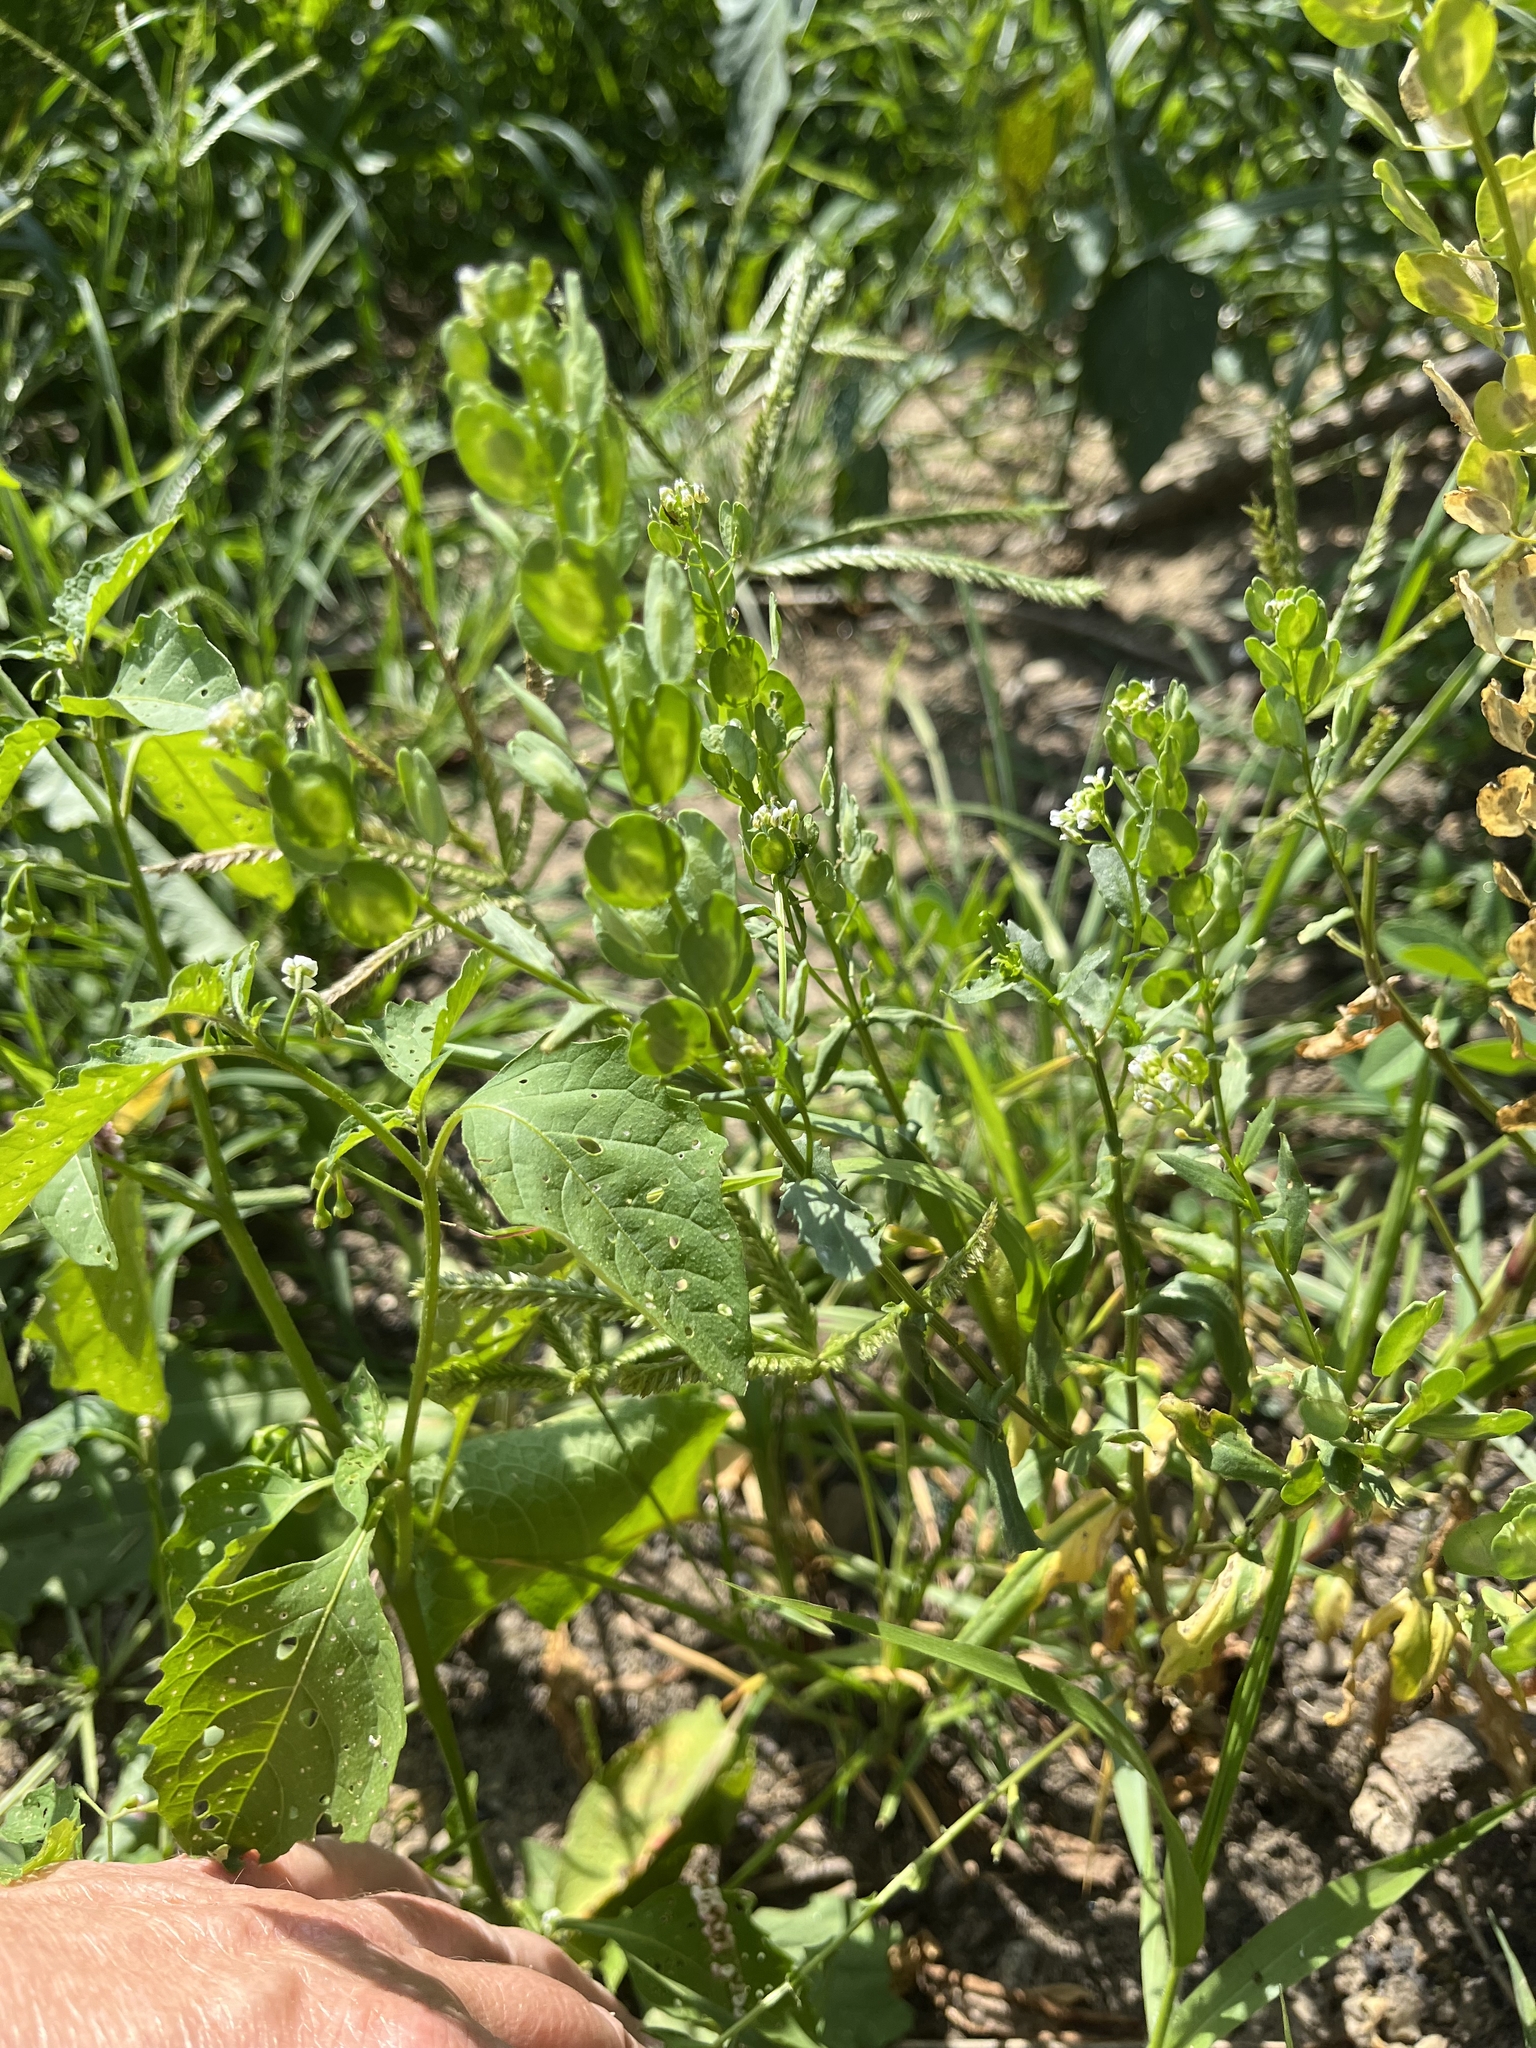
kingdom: Plantae
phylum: Tracheophyta
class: Magnoliopsida
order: Brassicales
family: Brassicaceae
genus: Thlaspi
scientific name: Thlaspi arvense
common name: Field pennycress
